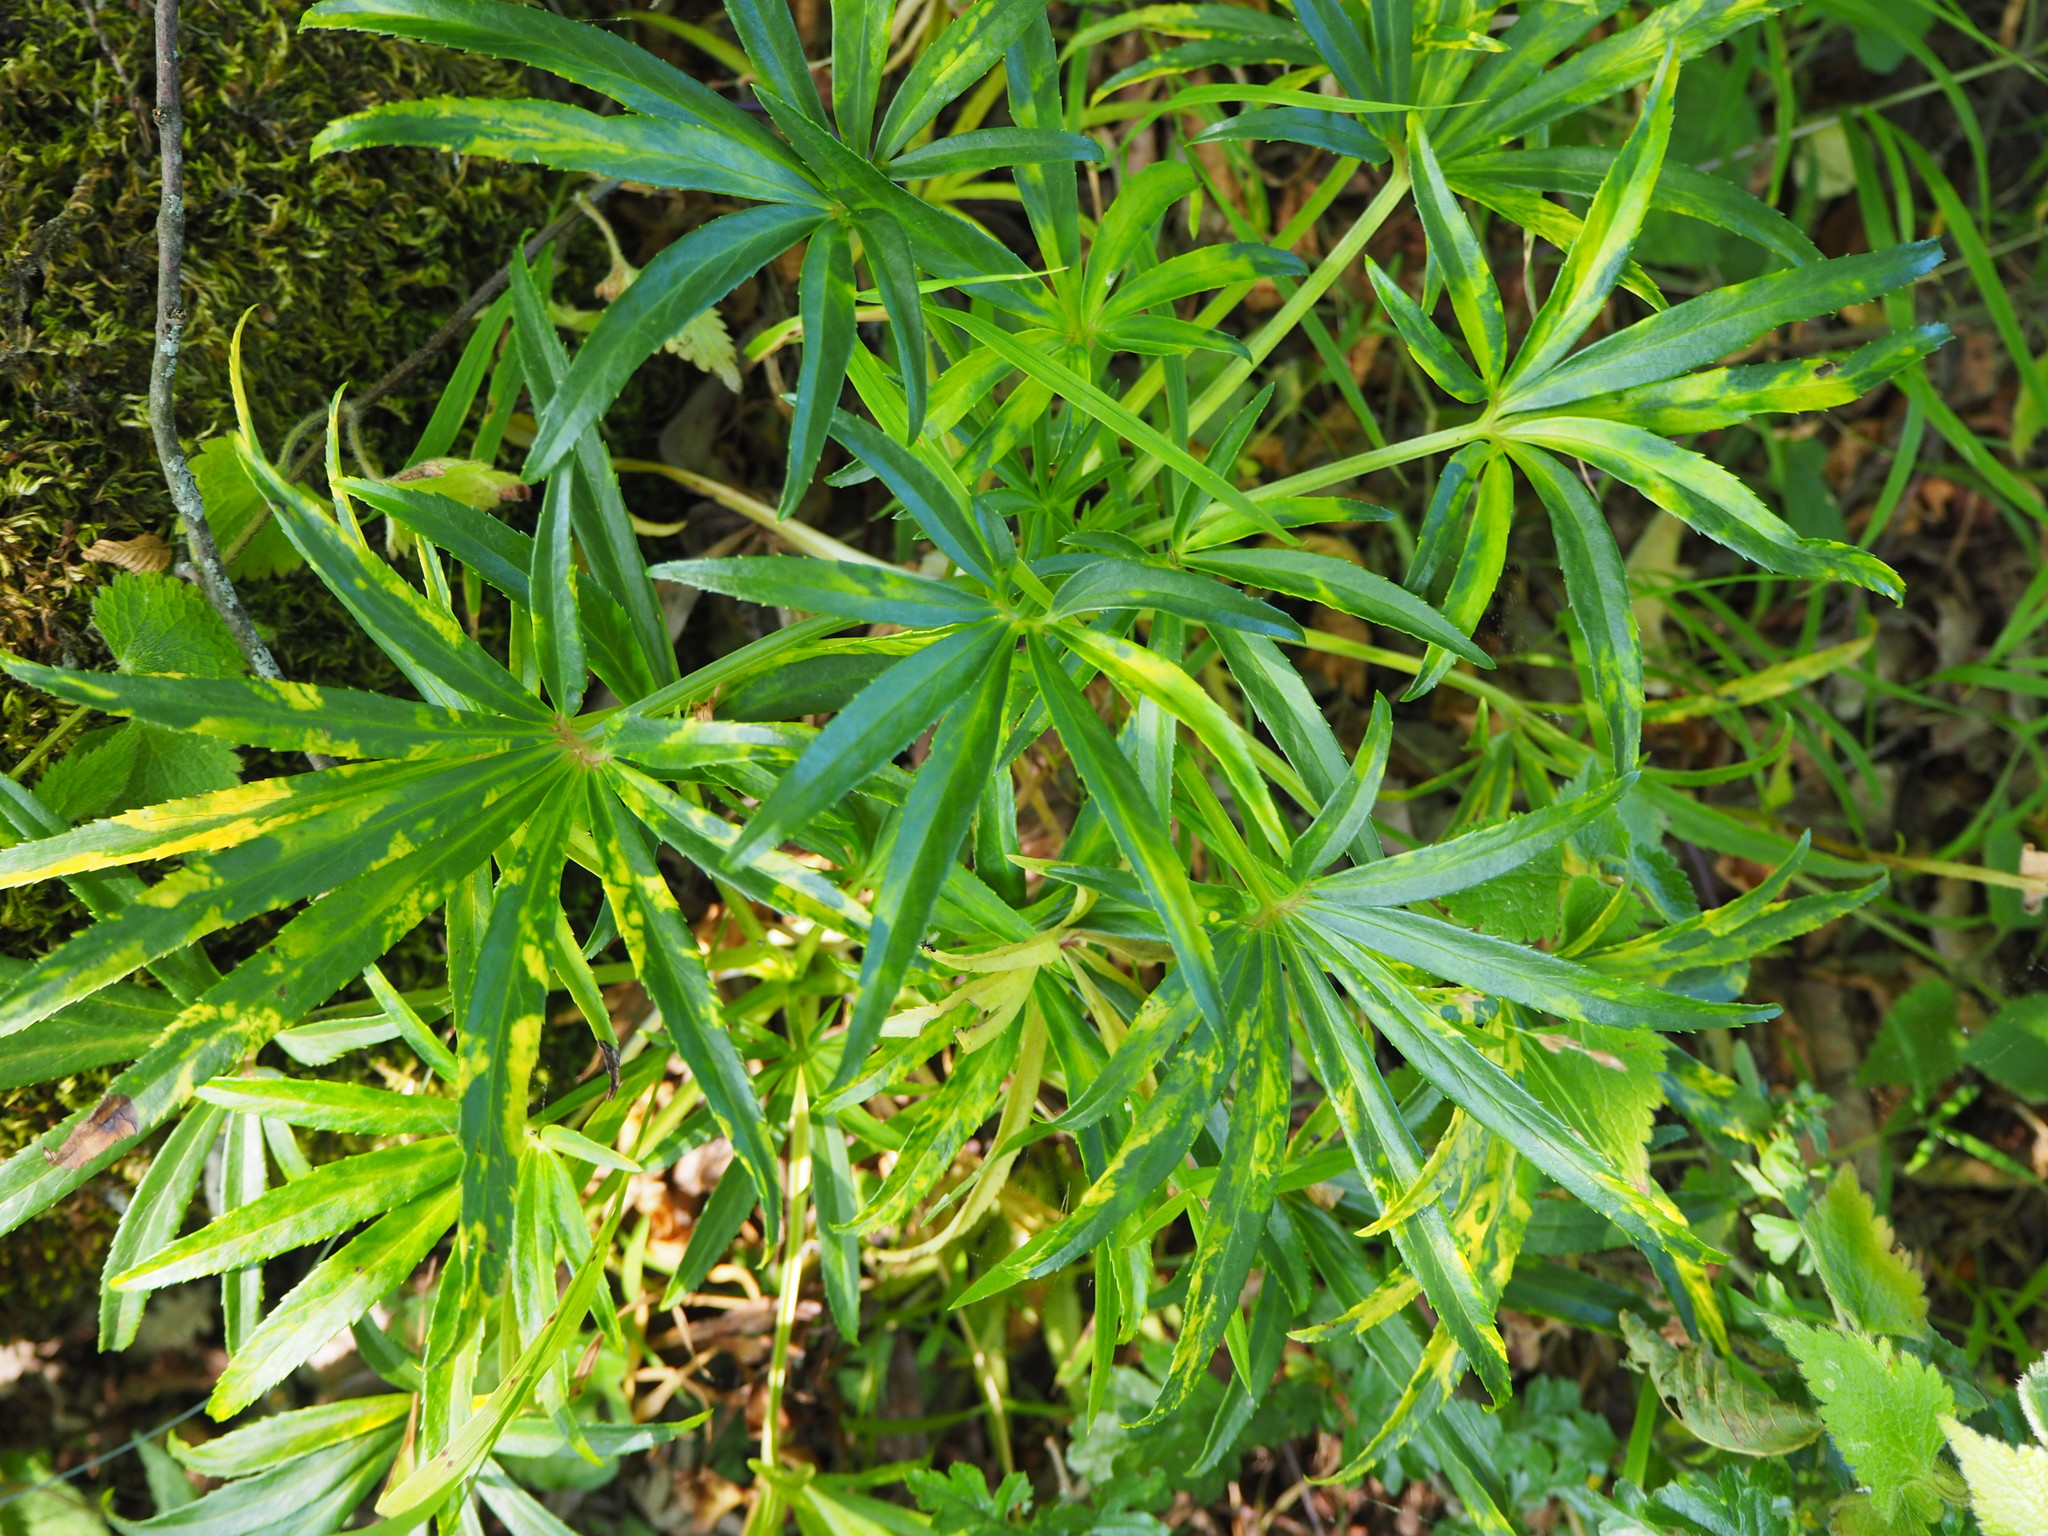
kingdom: Plantae
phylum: Tracheophyta
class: Magnoliopsida
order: Ranunculales
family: Ranunculaceae
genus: Helleborus
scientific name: Helleborus foetidus
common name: Stinking hellebore
